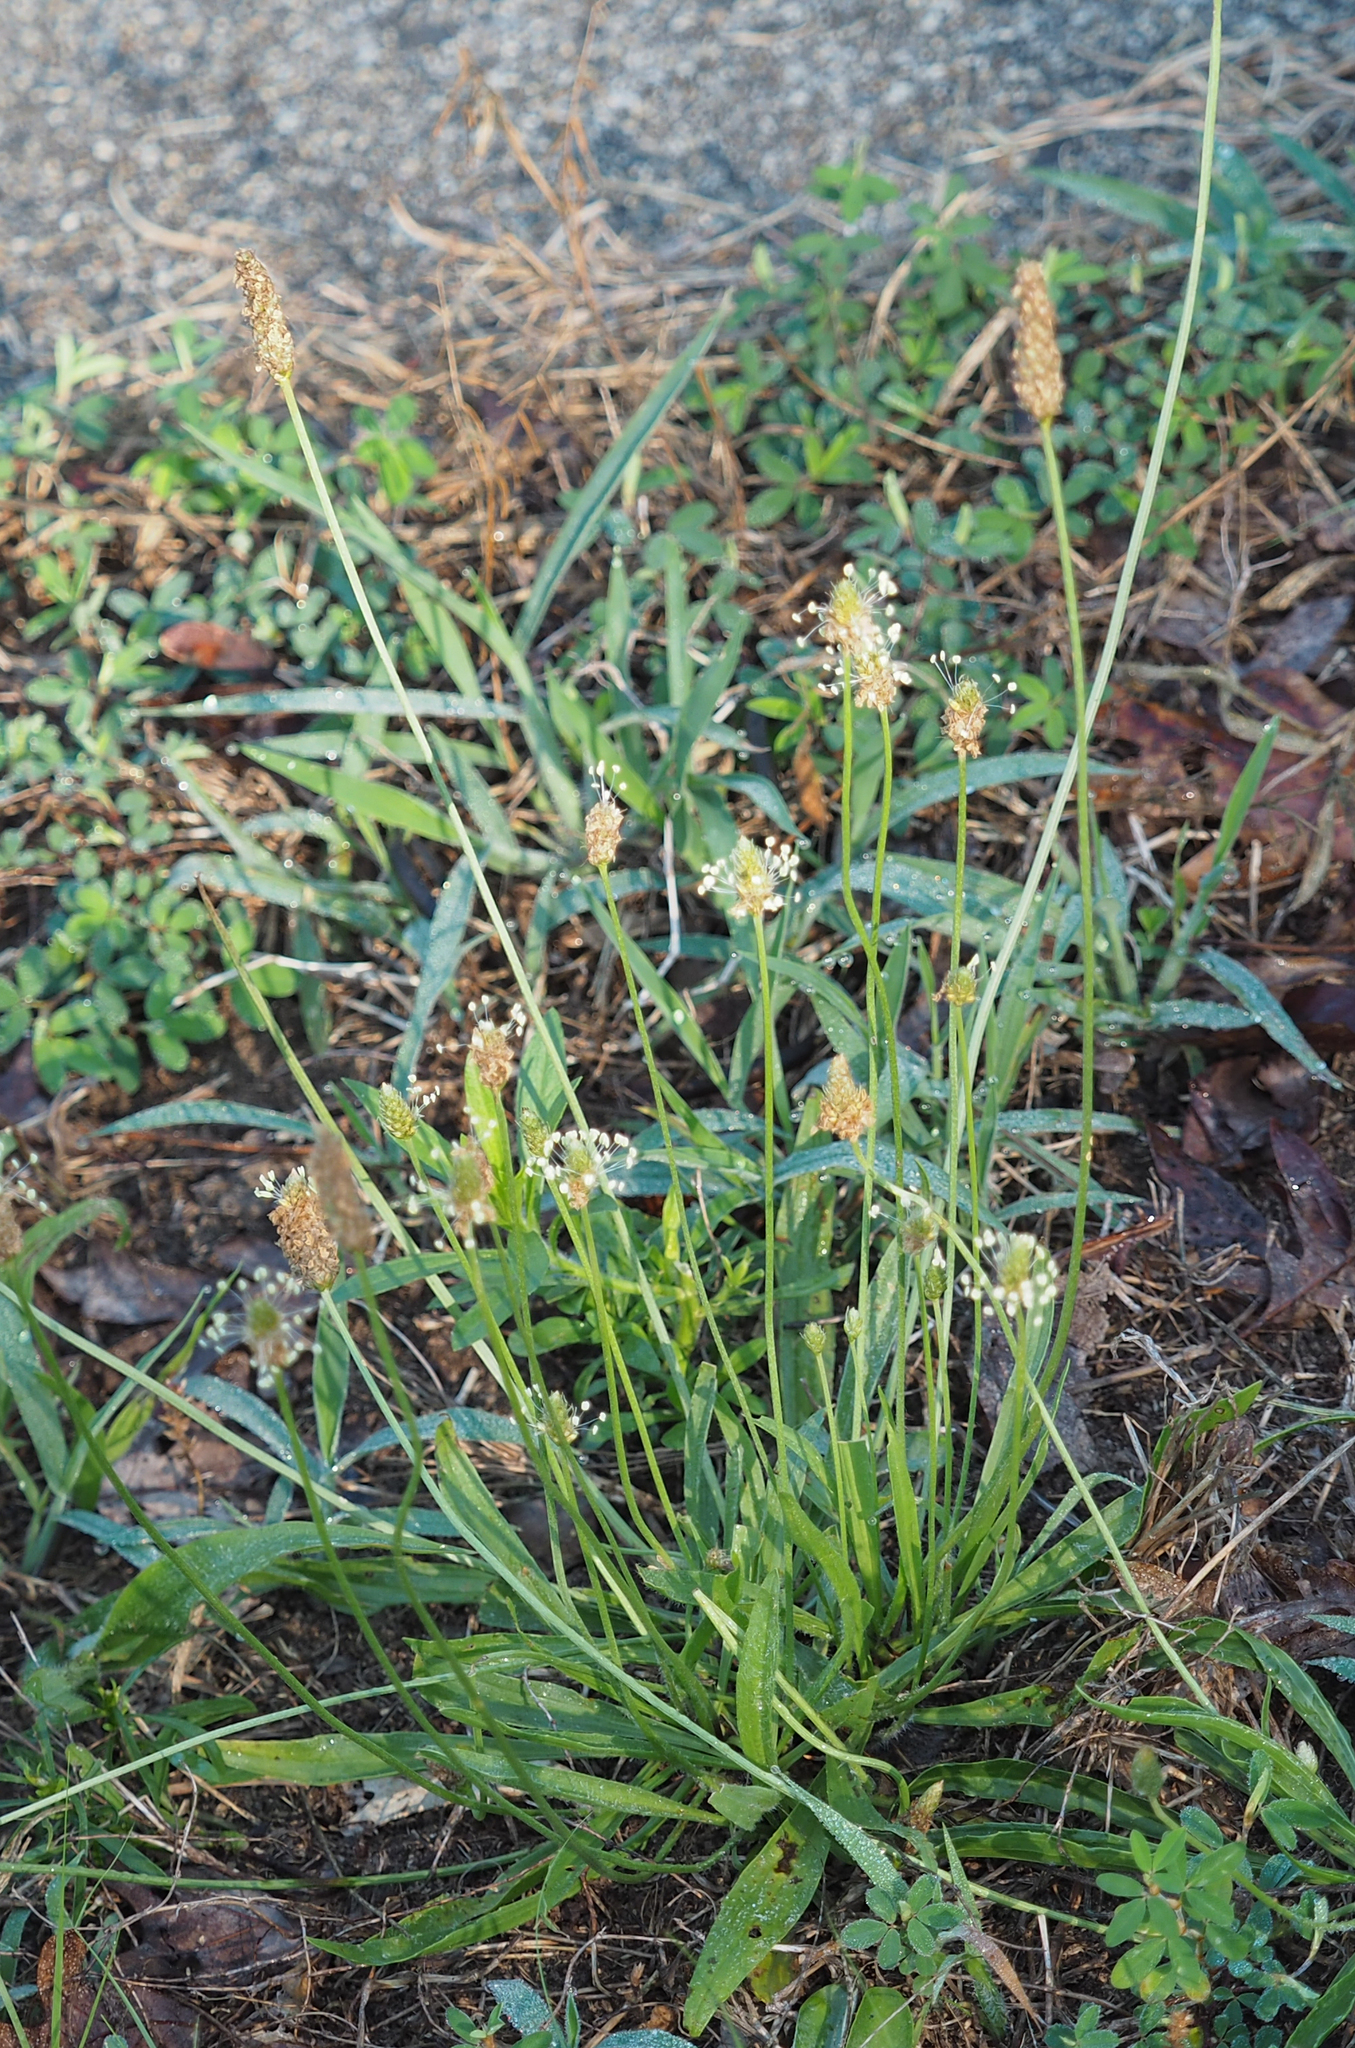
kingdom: Plantae
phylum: Tracheophyta
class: Magnoliopsida
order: Lamiales
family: Plantaginaceae
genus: Plantago
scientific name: Plantago lanceolata
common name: Ribwort plantain
